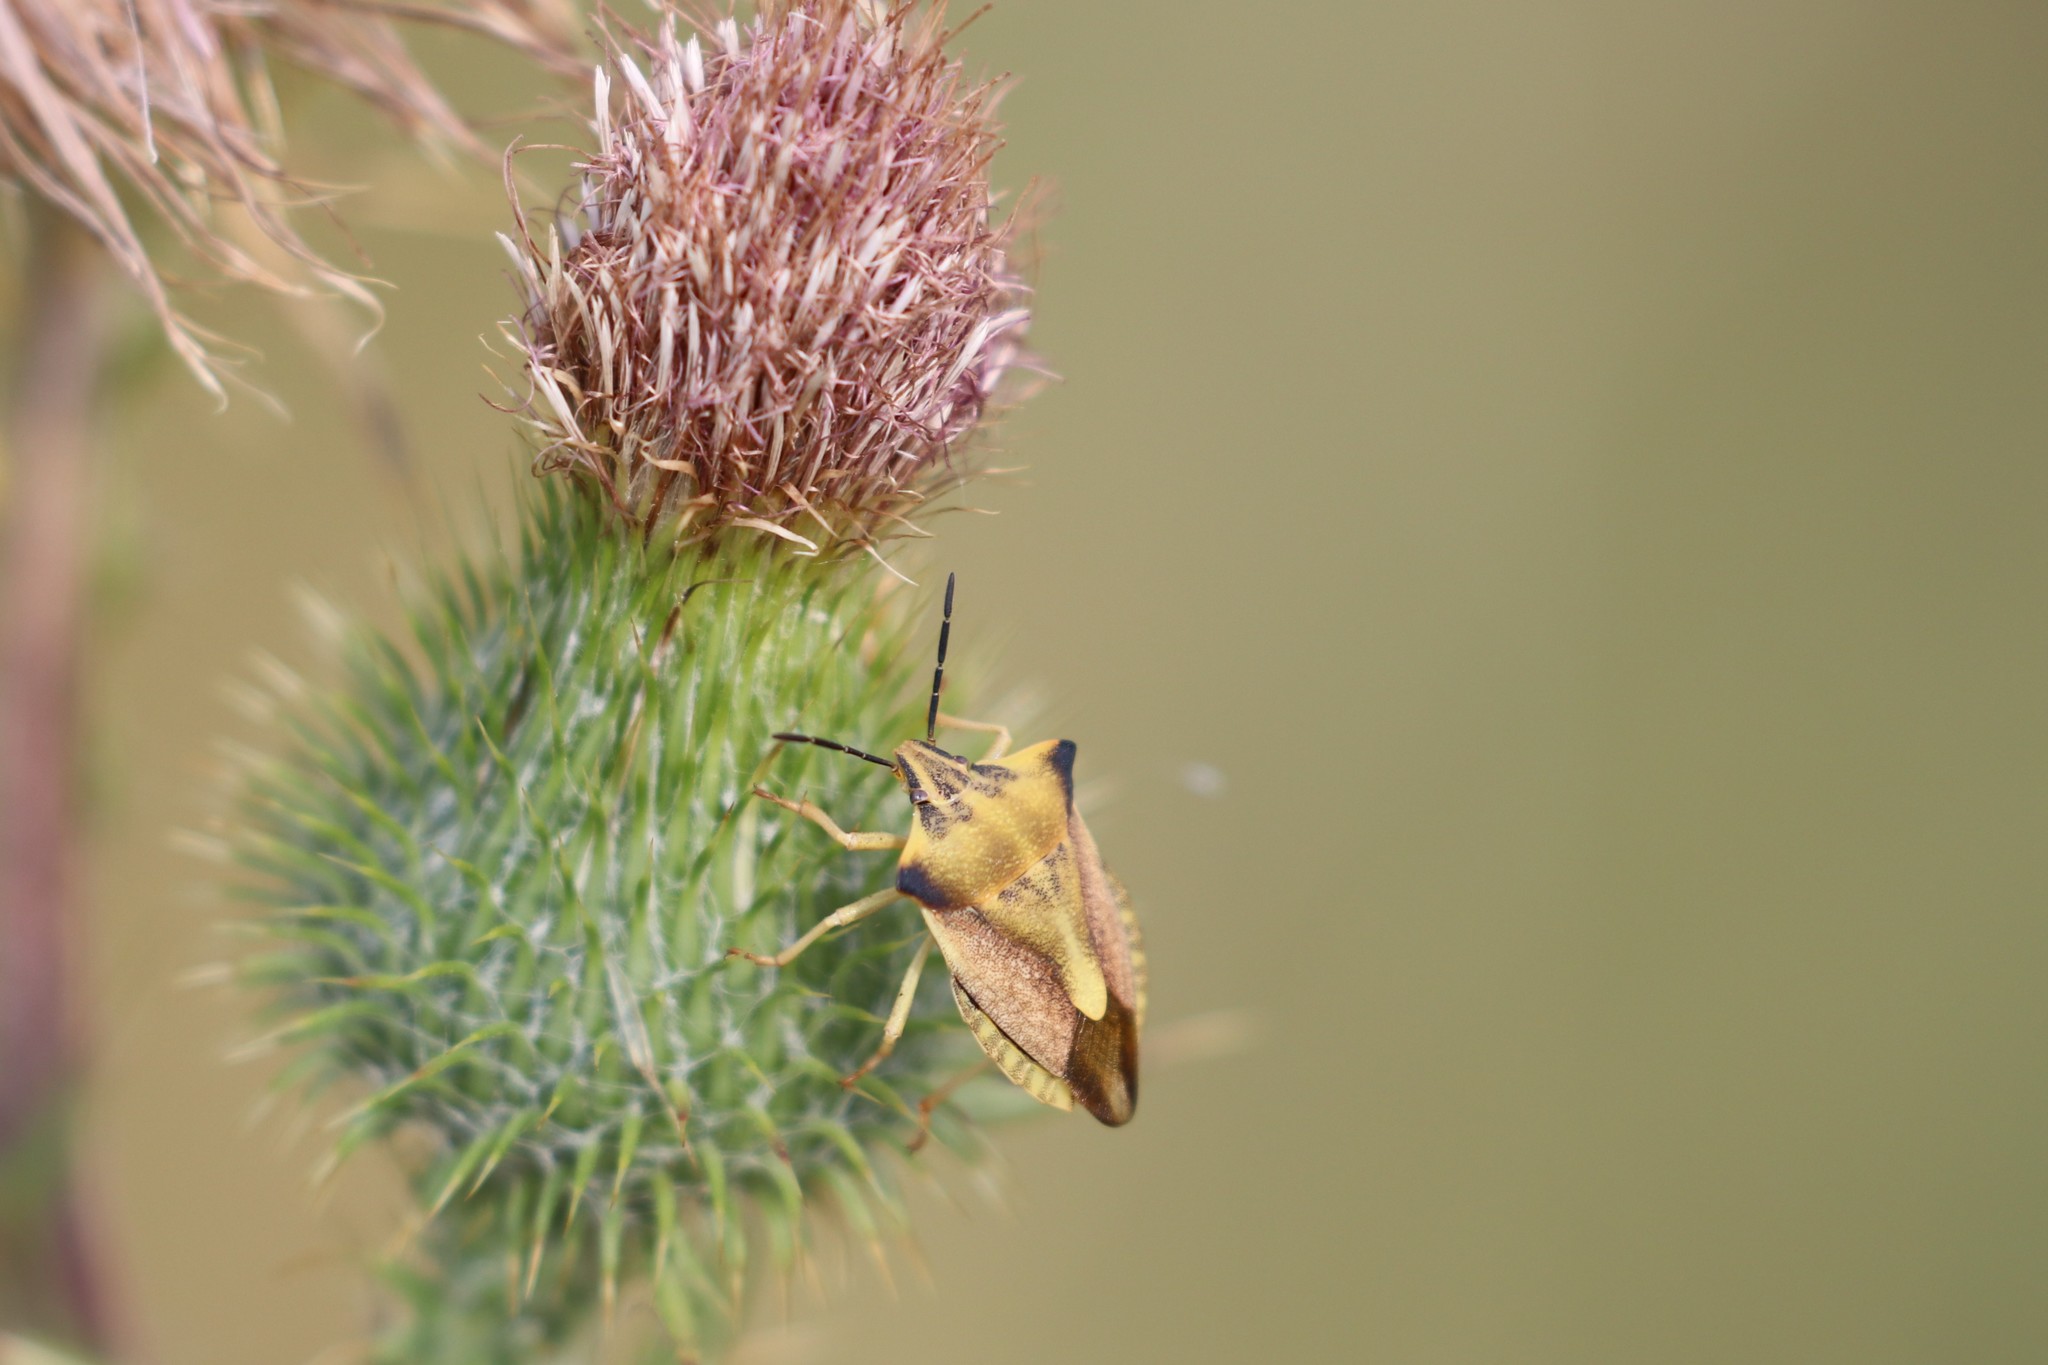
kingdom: Animalia
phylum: Arthropoda
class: Insecta
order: Hemiptera
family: Pentatomidae
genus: Carpocoris
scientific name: Carpocoris fuscispinus
